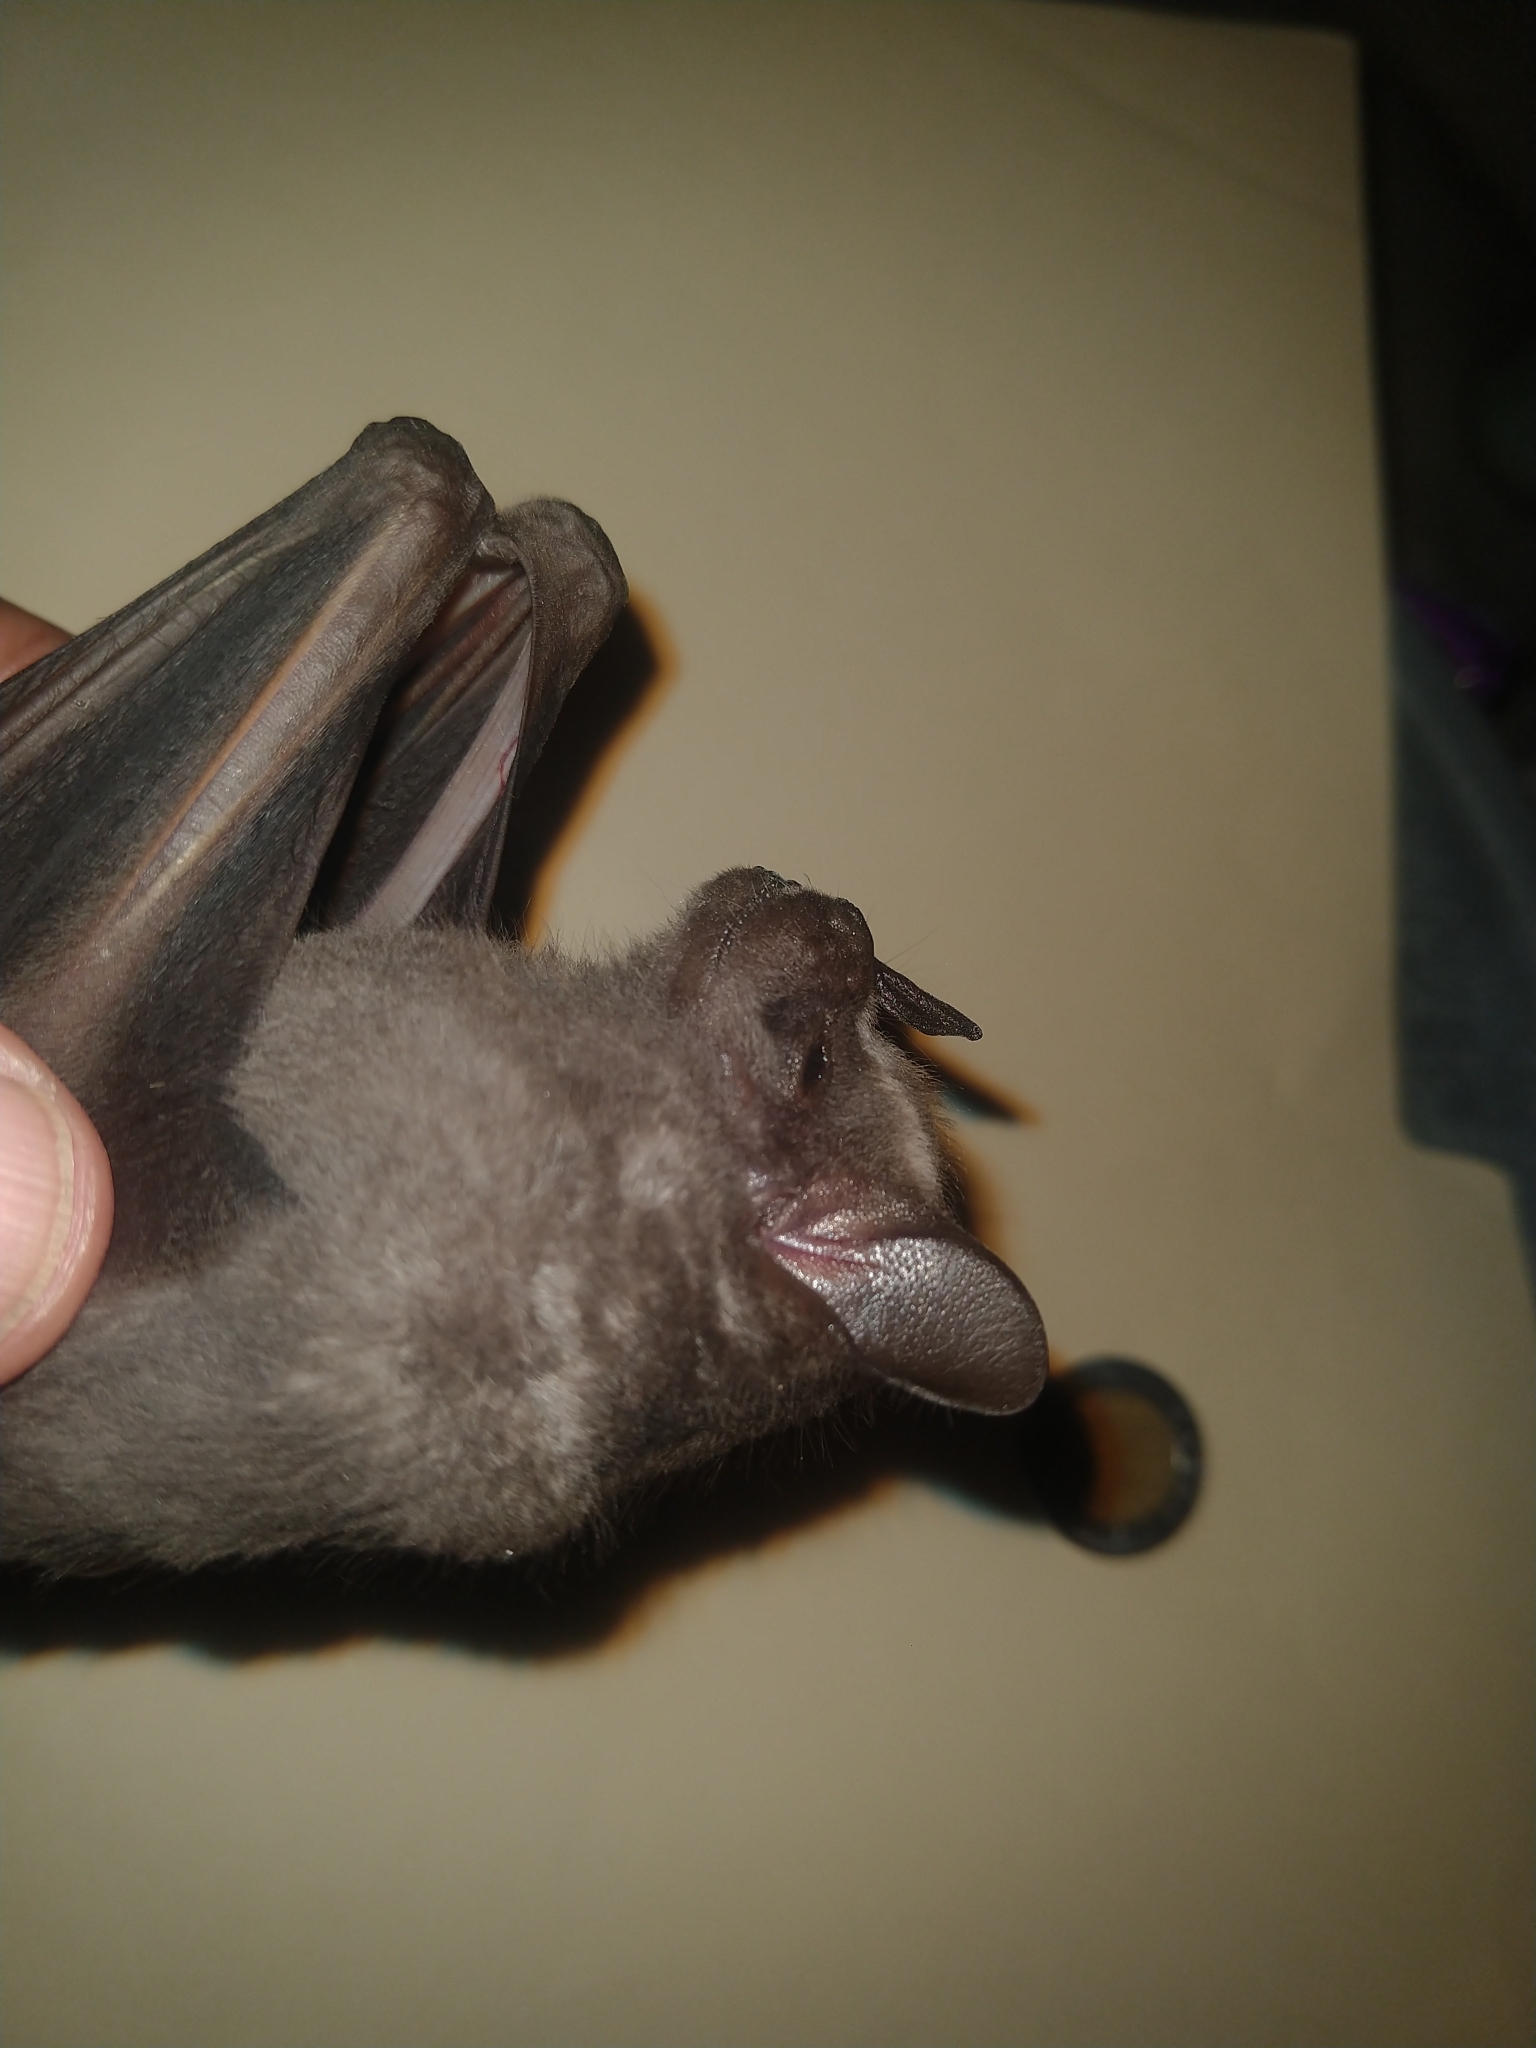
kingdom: Animalia
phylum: Chordata
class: Mammalia
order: Chiroptera
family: Phyllostomidae
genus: Artibeus
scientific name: Artibeus jamaicensis
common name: Jamaican fruit-eating bat
